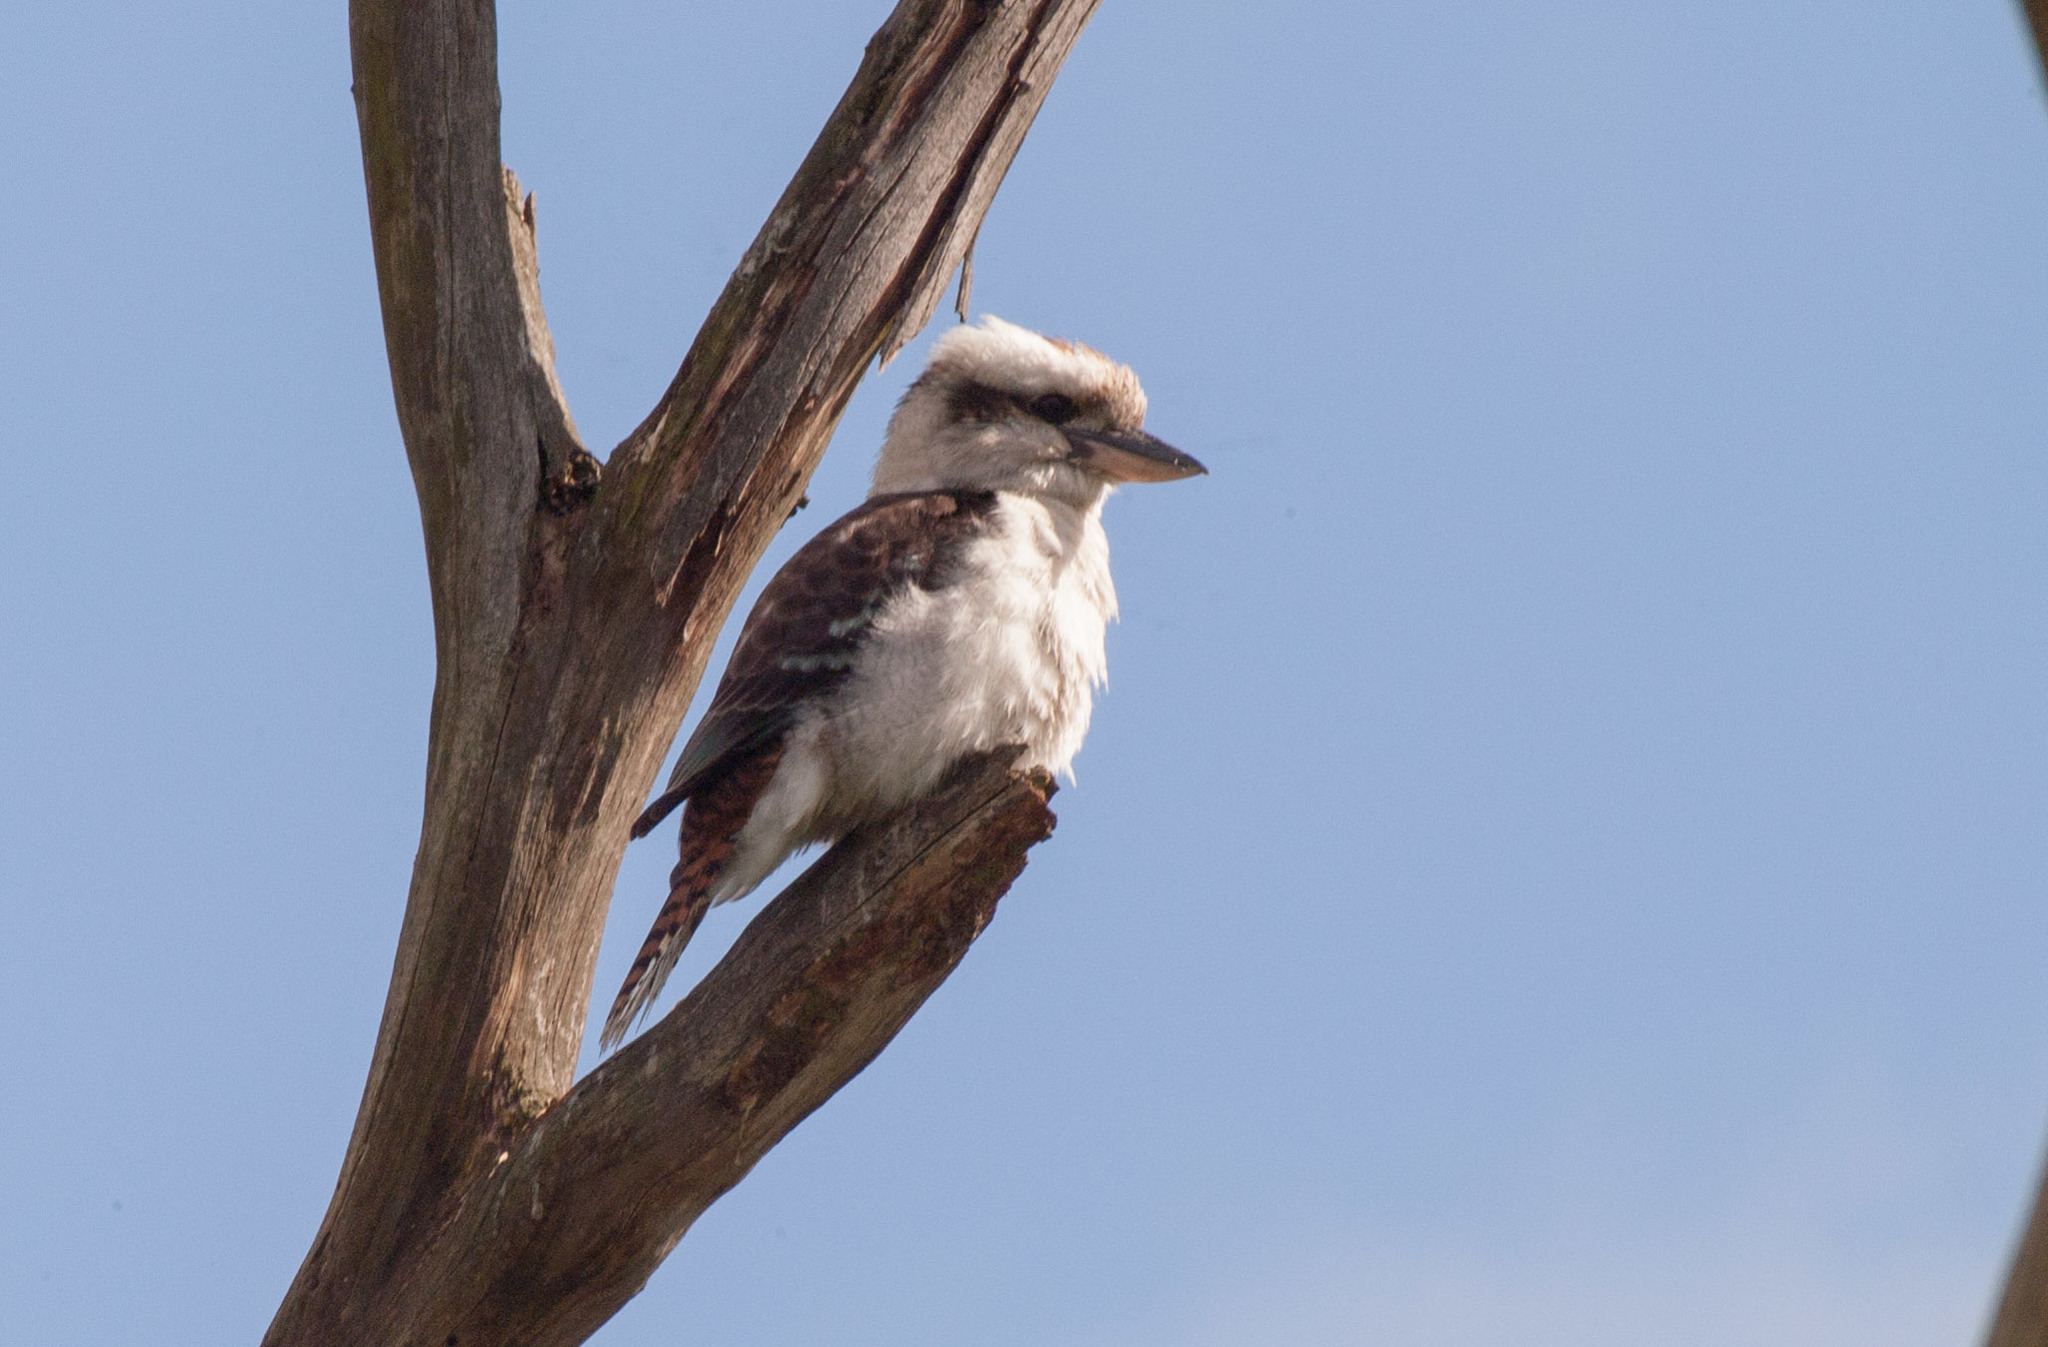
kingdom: Animalia
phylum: Chordata
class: Aves
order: Coraciiformes
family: Alcedinidae
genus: Dacelo
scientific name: Dacelo novaeguineae
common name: Laughing kookaburra
